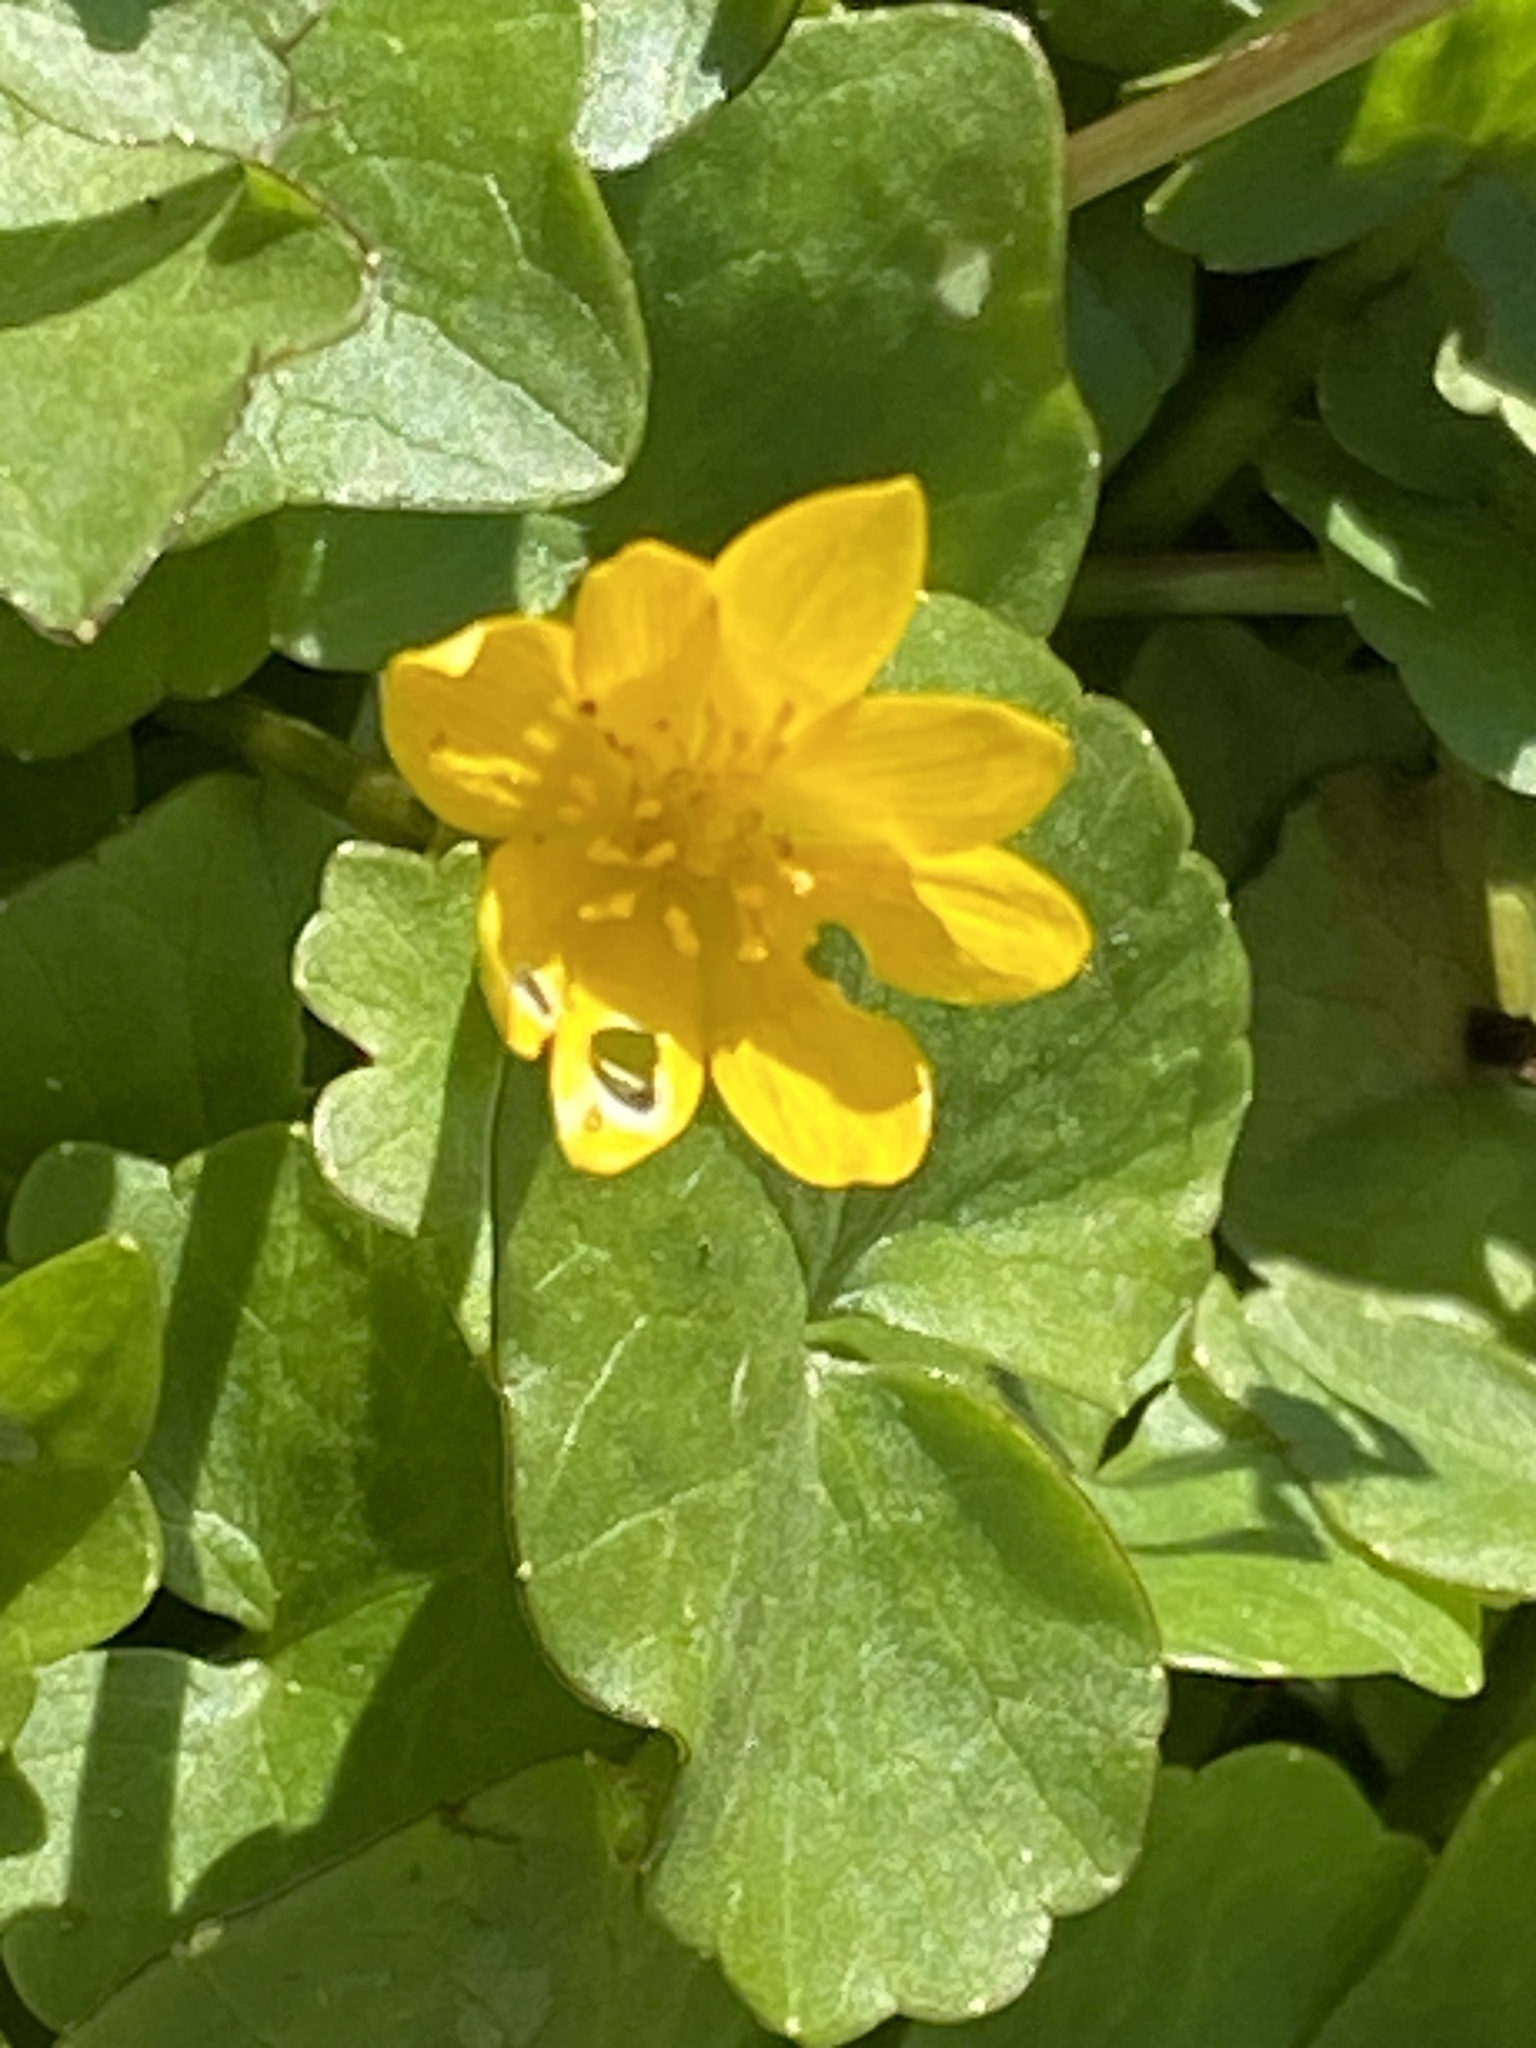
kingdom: Plantae
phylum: Tracheophyta
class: Magnoliopsida
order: Ranunculales
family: Ranunculaceae
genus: Ficaria
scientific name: Ficaria verna
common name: Lesser celandine
